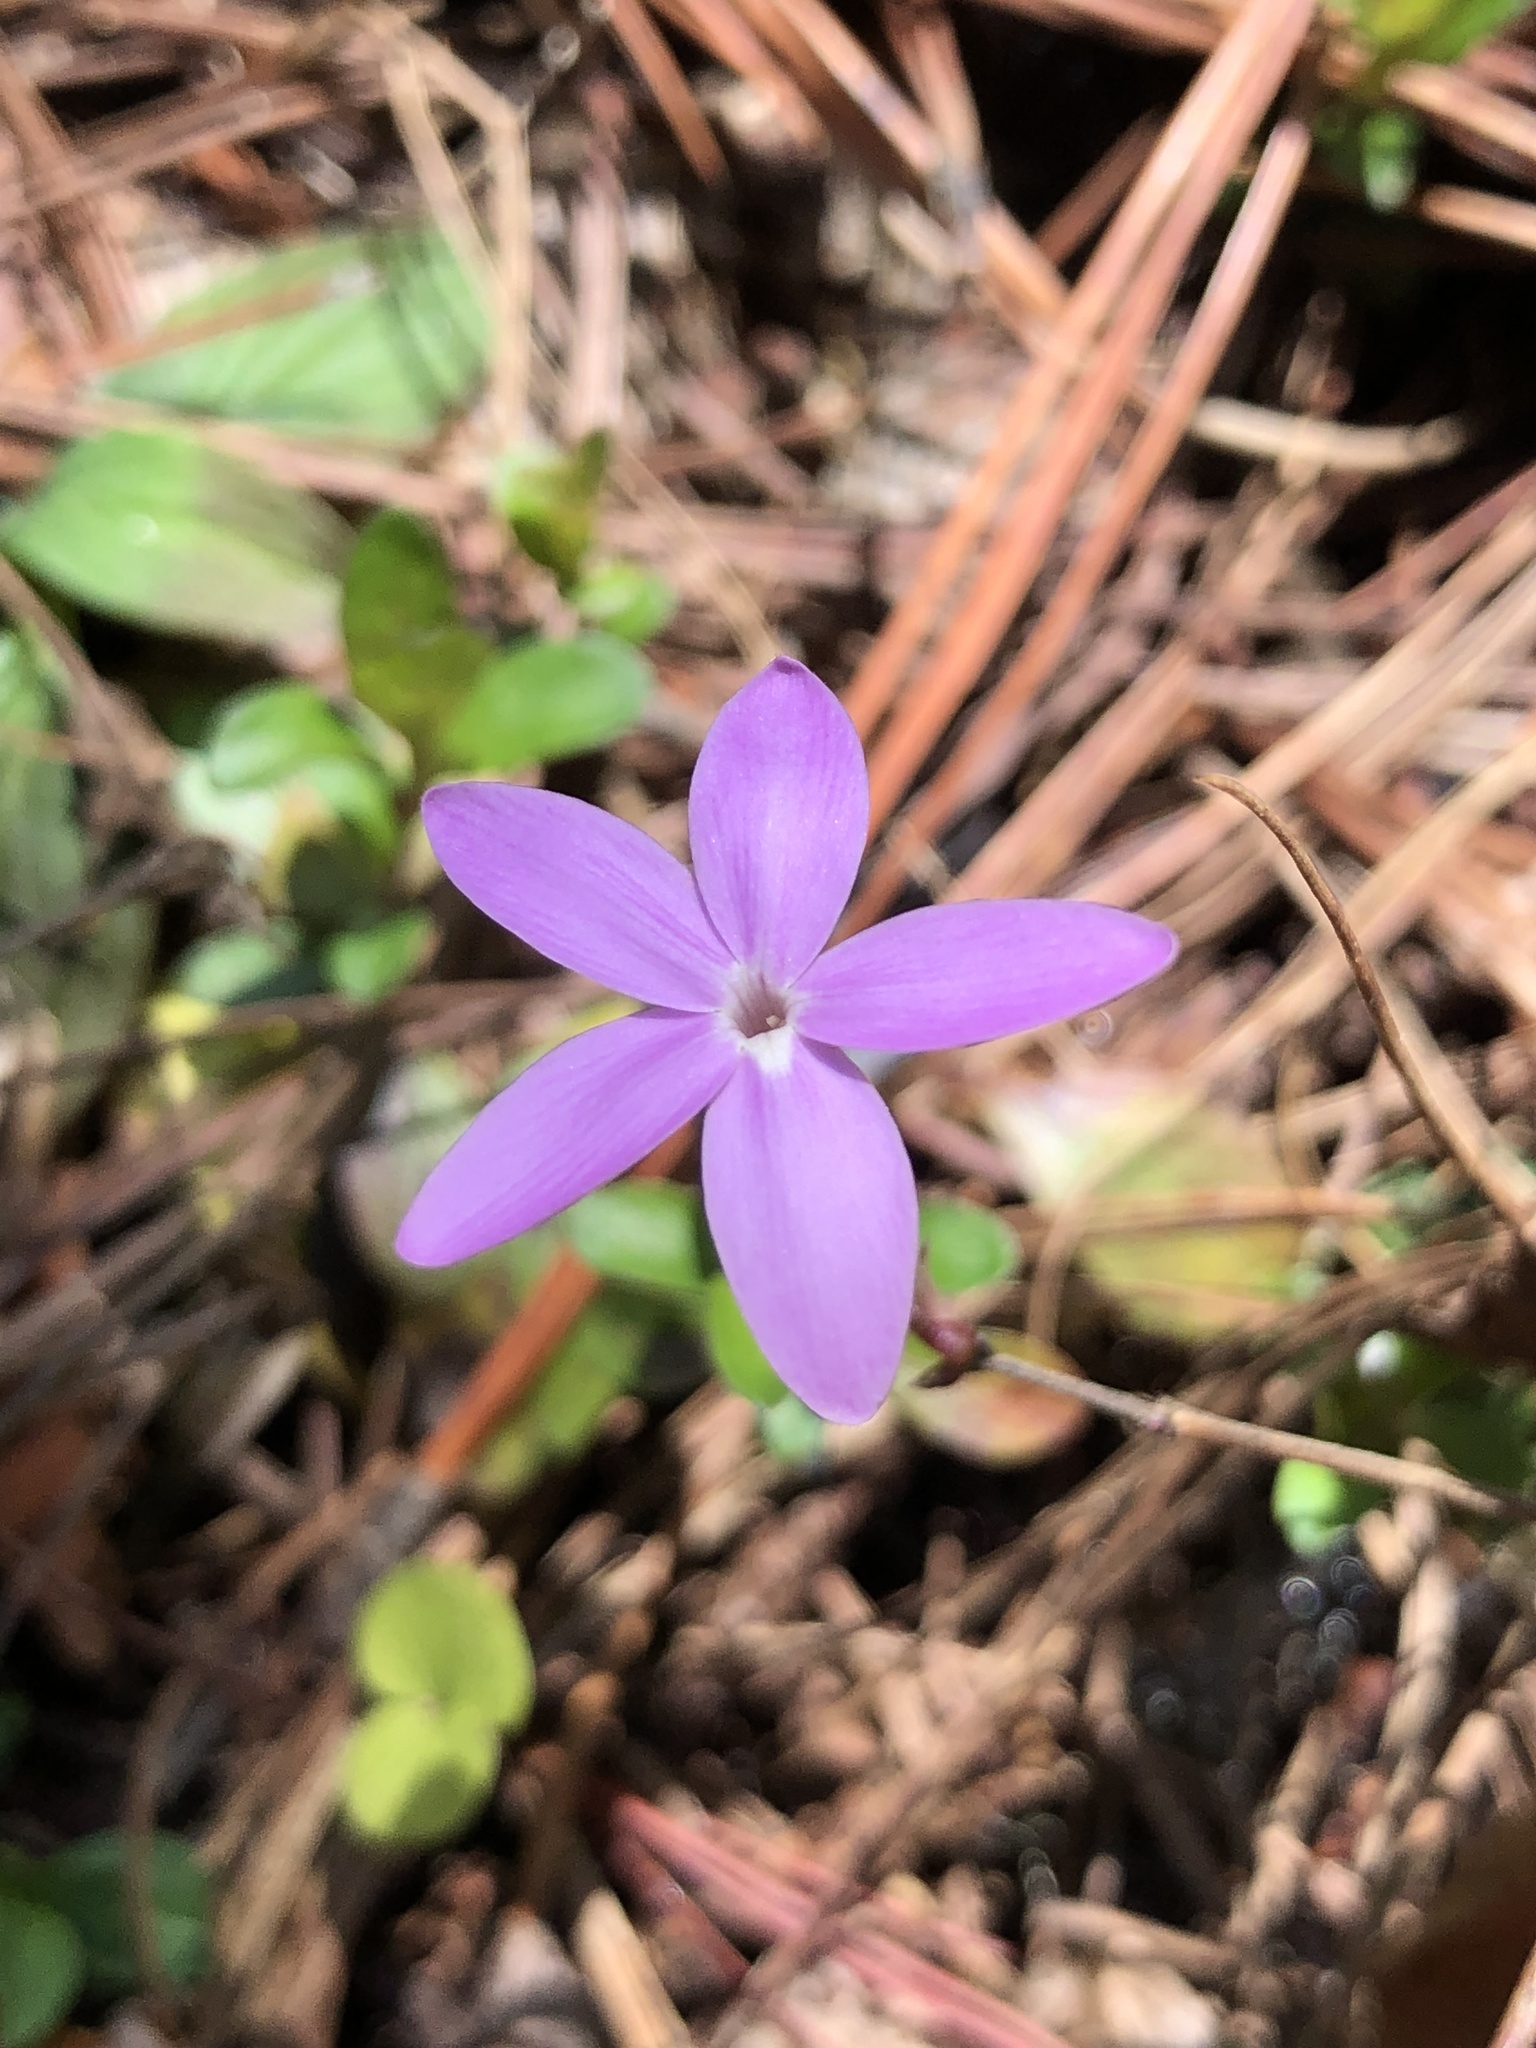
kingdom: Plantae
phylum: Tracheophyta
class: Magnoliopsida
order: Lamiales
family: Acanthaceae
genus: Pseuderanthemum
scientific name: Pseuderanthemum praecox
